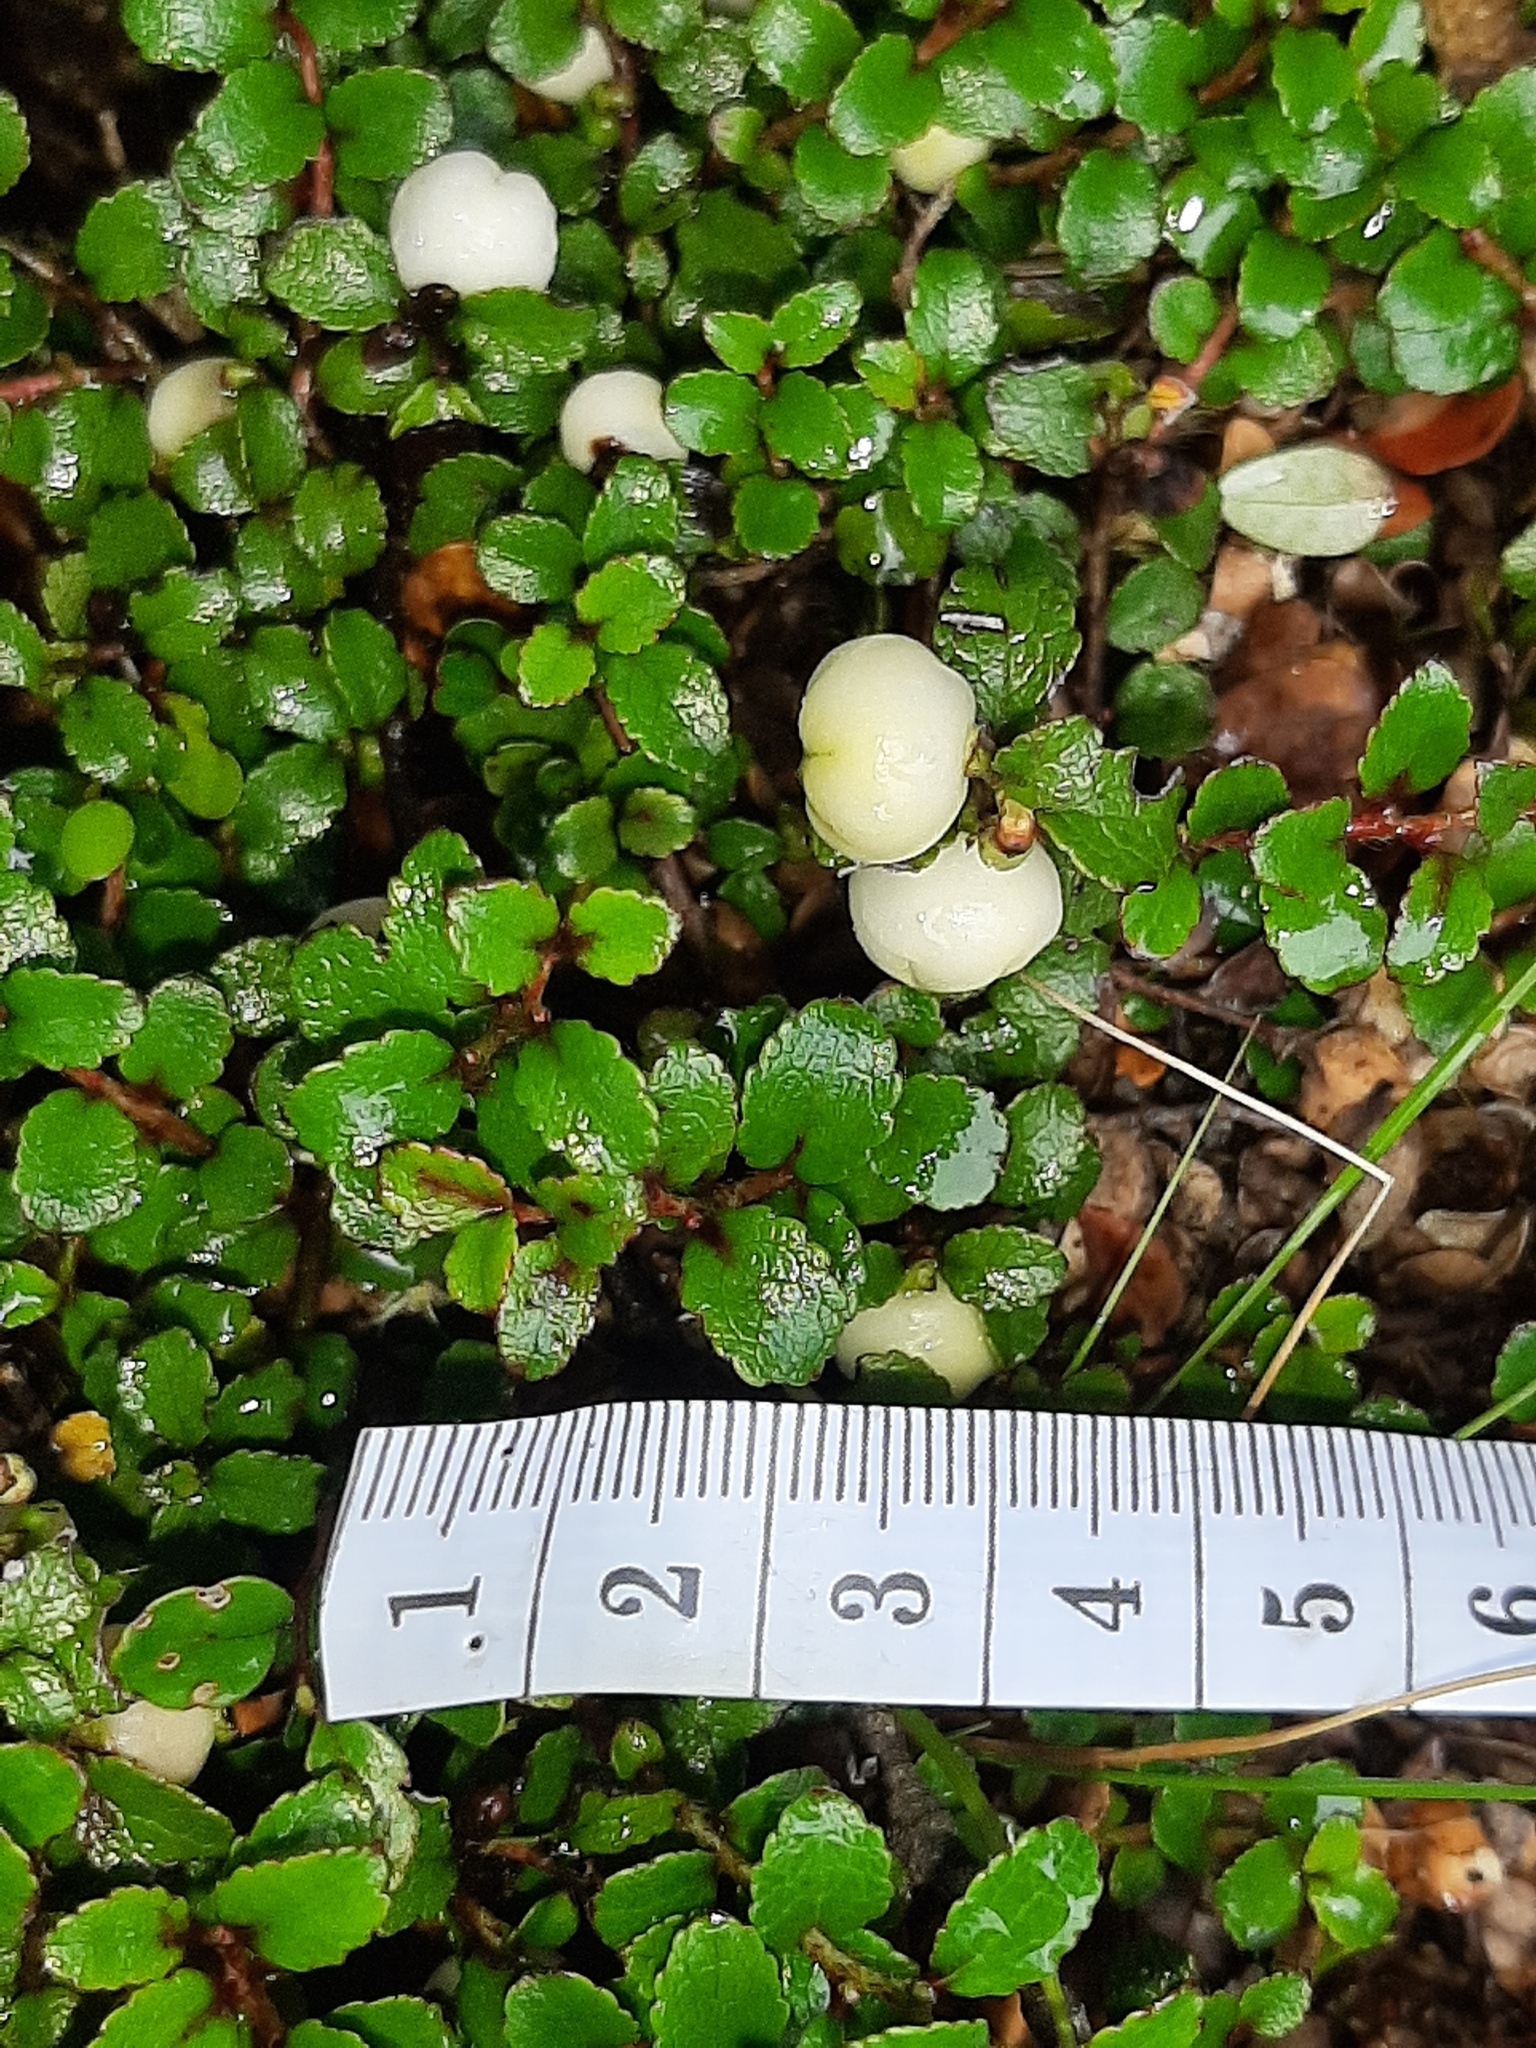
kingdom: Plantae
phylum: Tracheophyta
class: Magnoliopsida
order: Ericales
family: Ericaceae
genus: Gaultheria
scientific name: Gaultheria depressa
